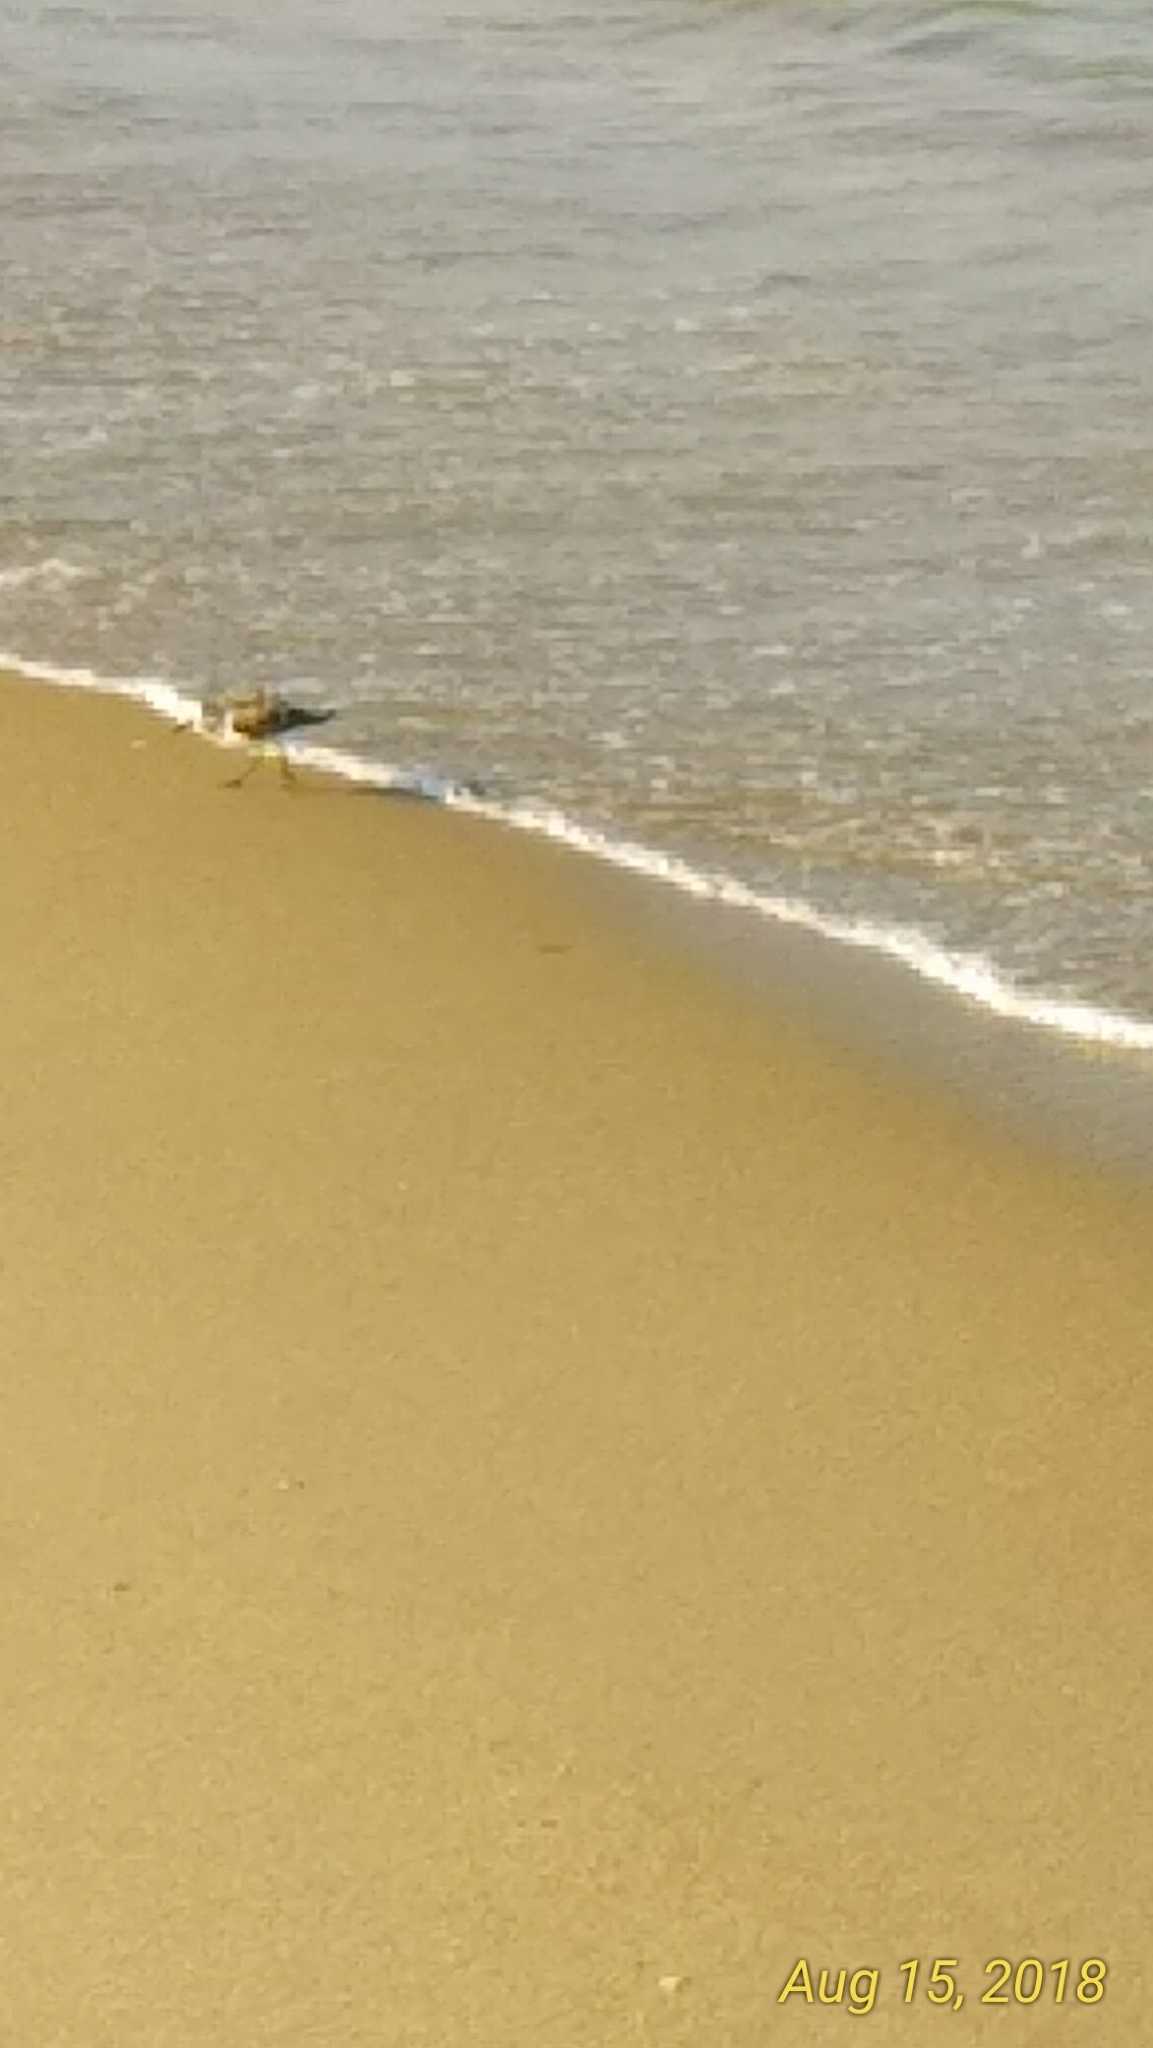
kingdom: Animalia
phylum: Chordata
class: Aves
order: Charadriiformes
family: Scolopacidae
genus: Calidris
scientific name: Calidris alba
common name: Sanderling
